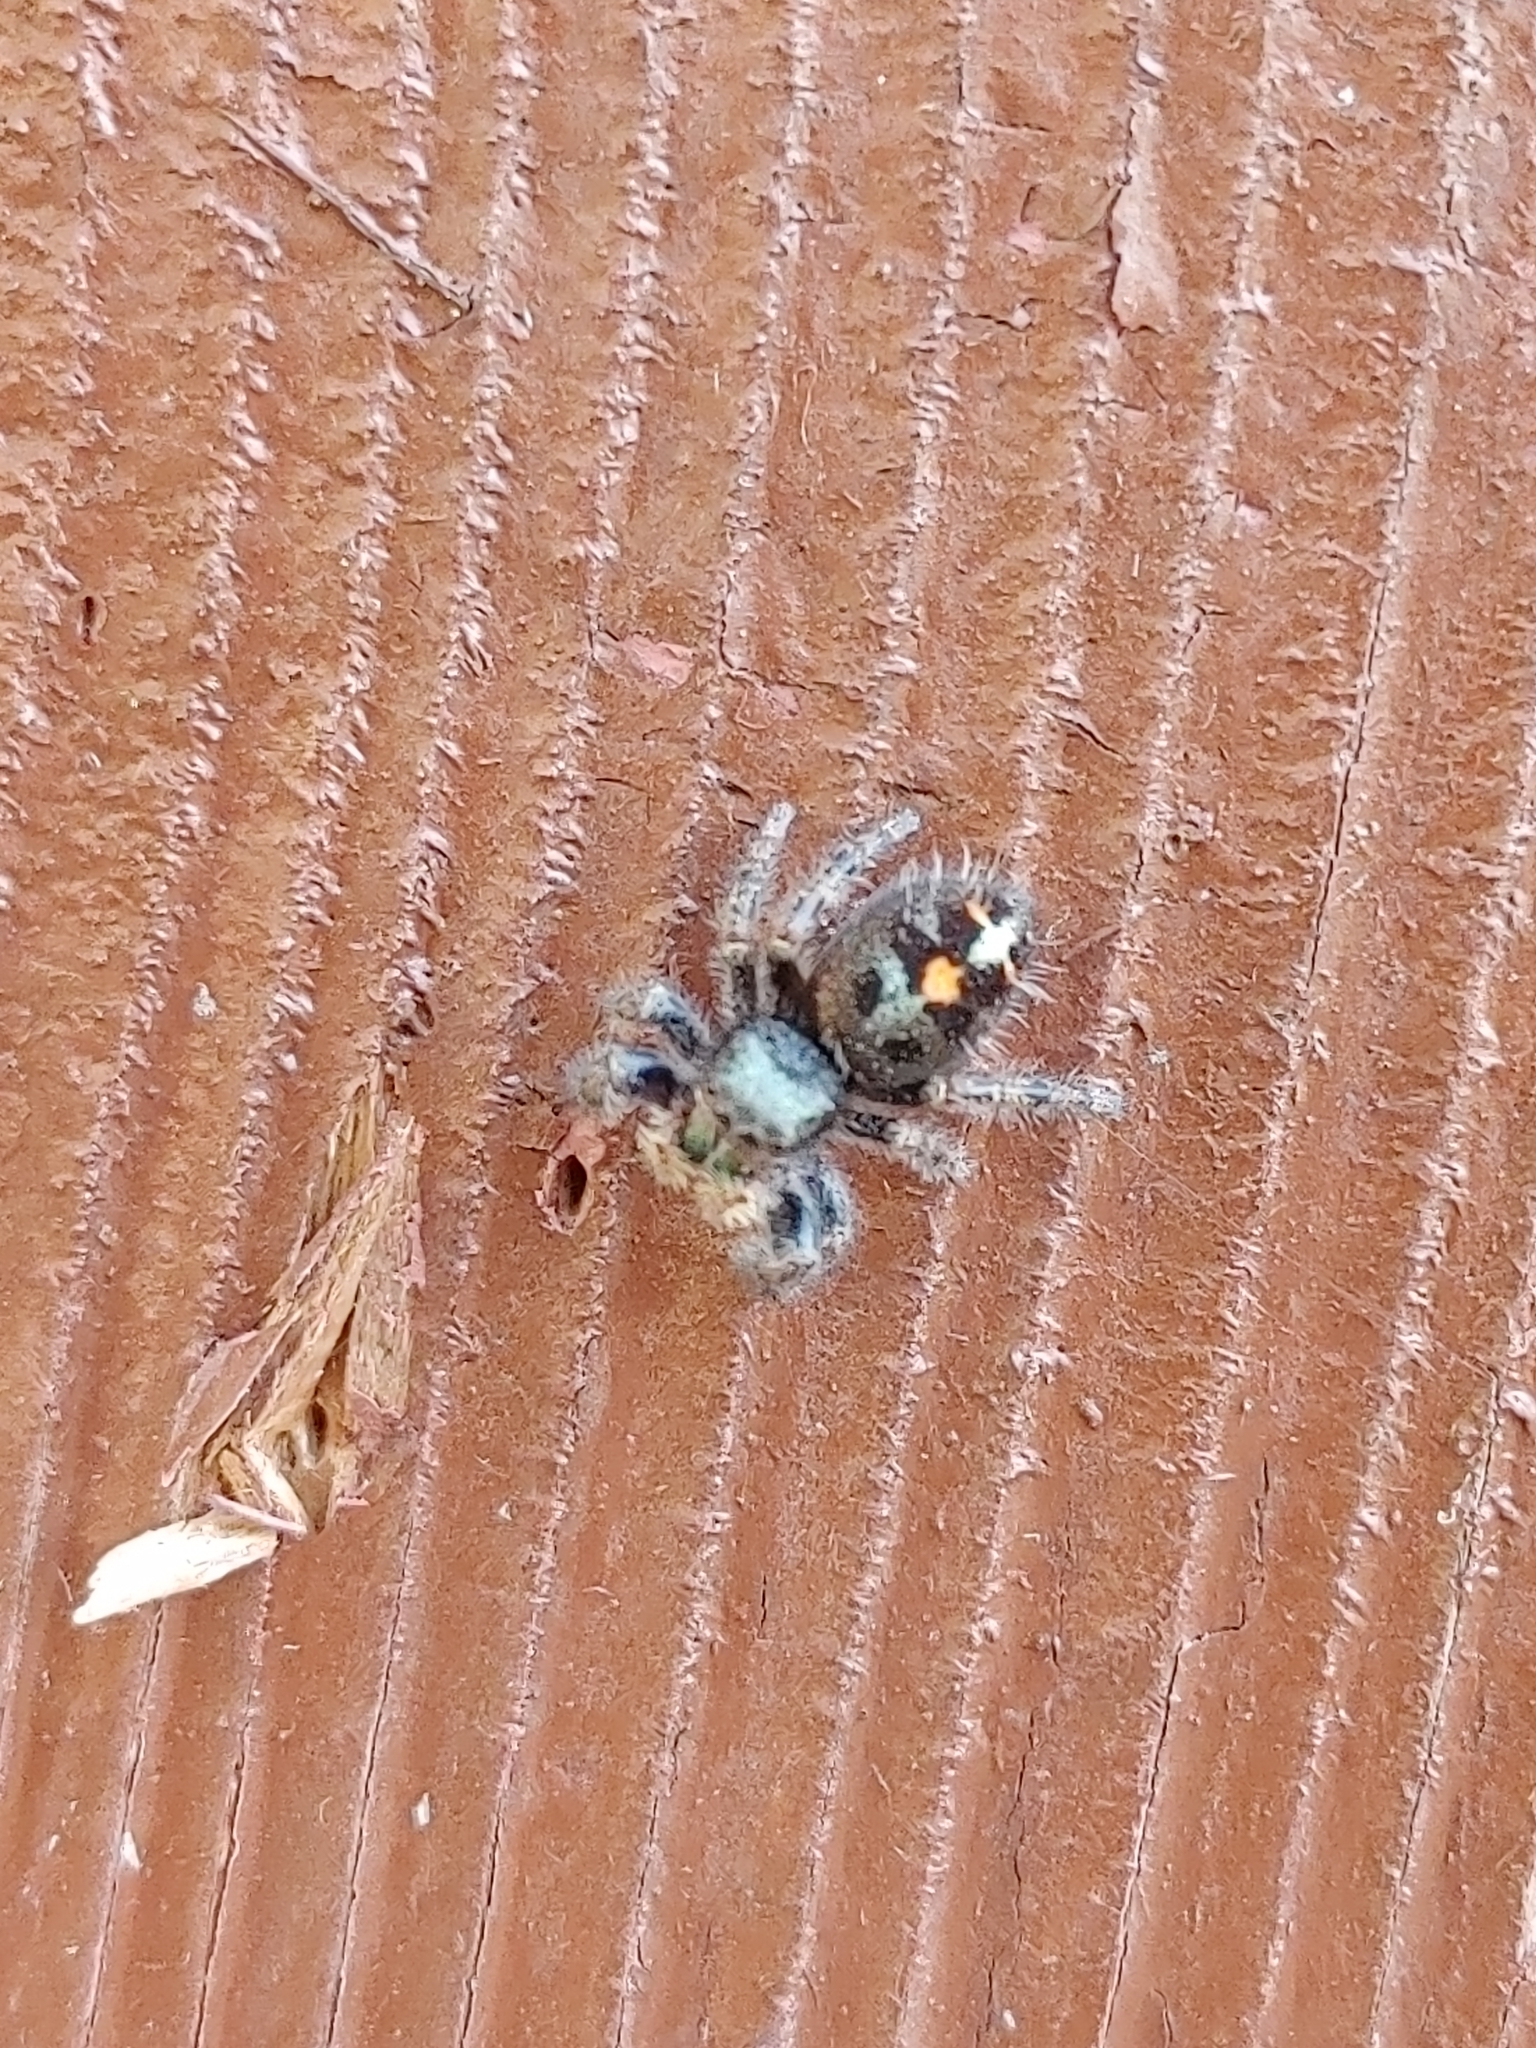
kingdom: Animalia
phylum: Arthropoda
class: Arachnida
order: Araneae
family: Salticidae
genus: Phidippus
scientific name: Phidippus audax
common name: Bold jumper
